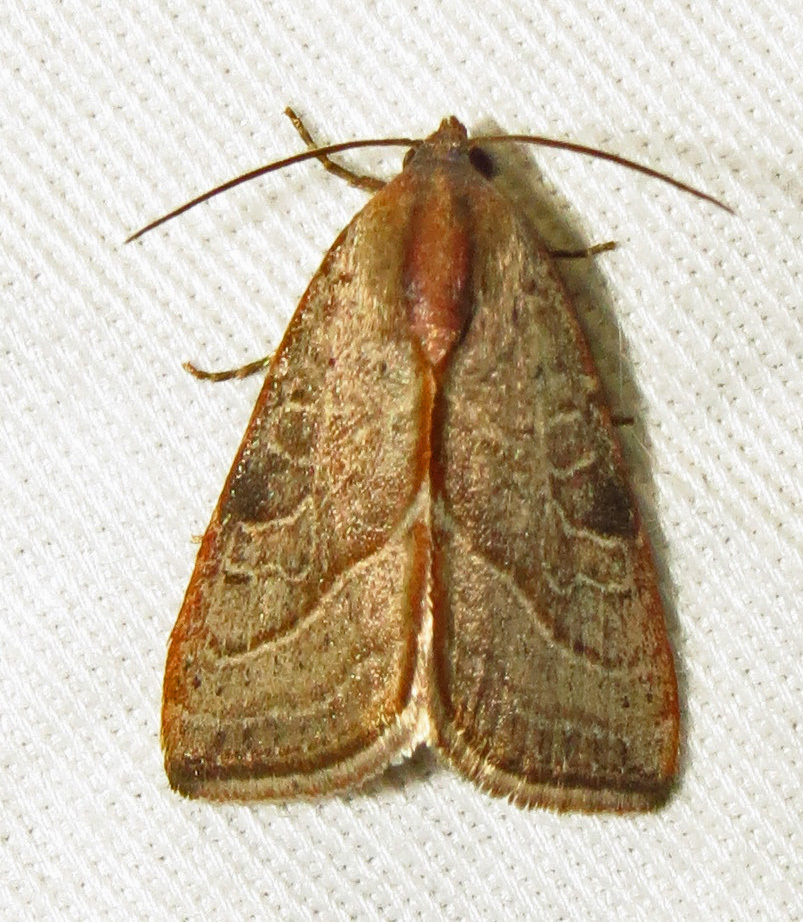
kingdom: Animalia
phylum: Arthropoda
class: Insecta
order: Lepidoptera
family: Noctuidae
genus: Galgula
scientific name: Galgula partita
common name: Wedgeling
